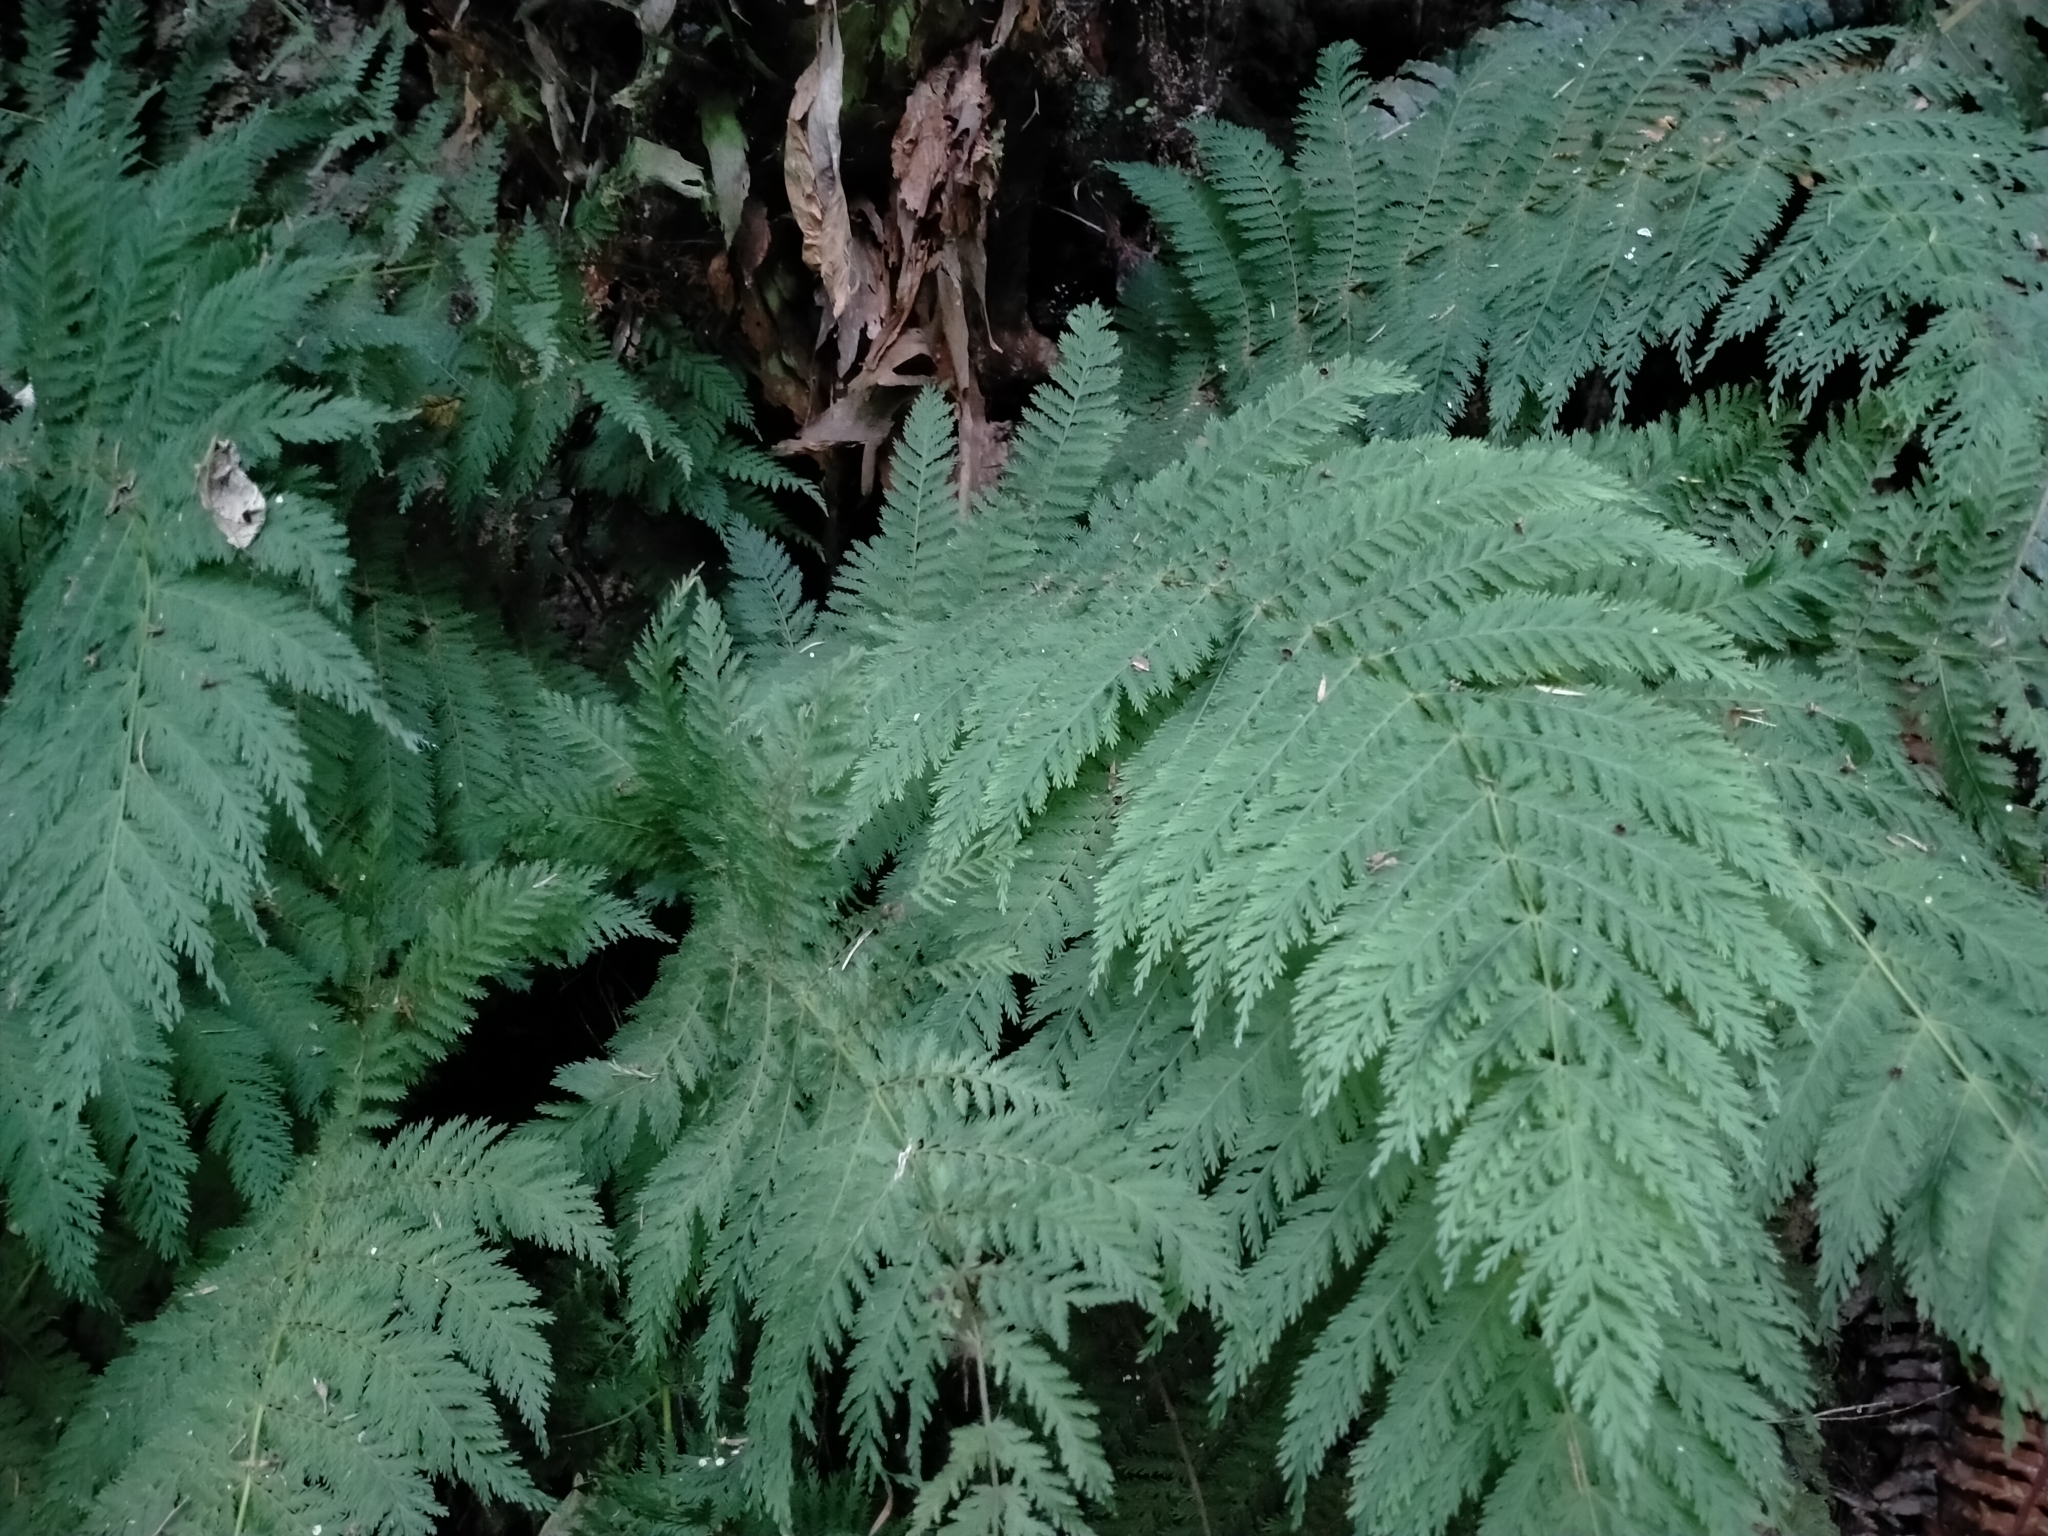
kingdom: Plantae
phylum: Tracheophyta
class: Polypodiopsida
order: Osmundales
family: Osmundaceae
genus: Leptopteris
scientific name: Leptopteris hymenophylloides
